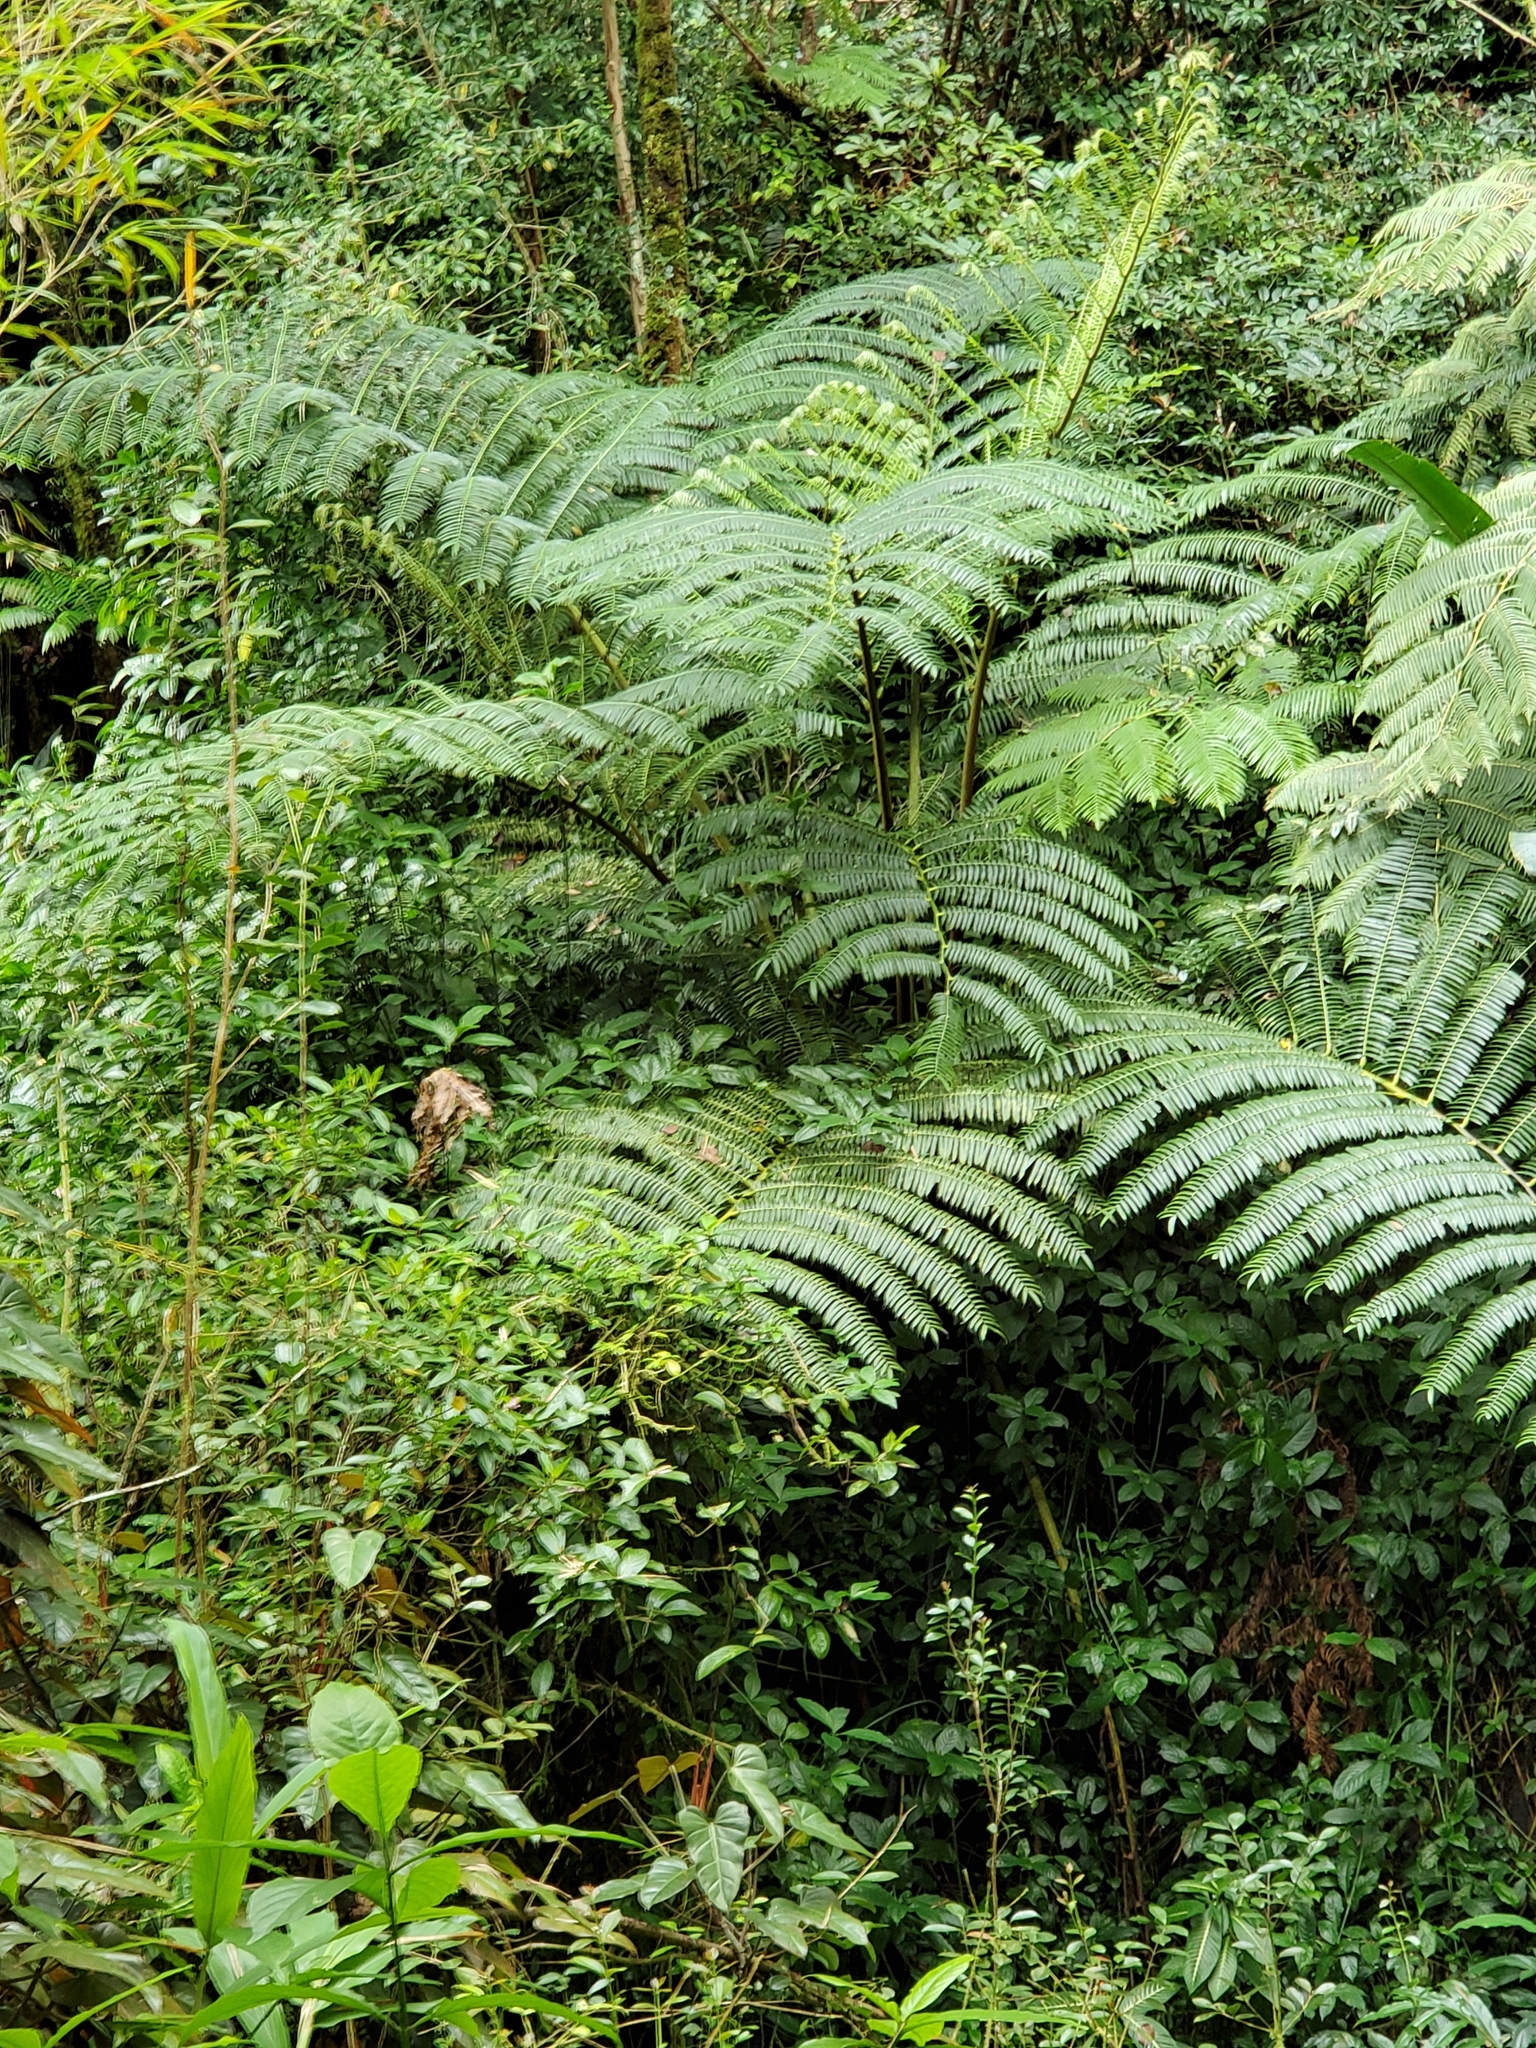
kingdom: Plantae
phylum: Tracheophyta
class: Polypodiopsida
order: Marattiales
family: Marattiaceae
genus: Angiopteris
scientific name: Angiopteris evecta
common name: Mule's-foot fern
